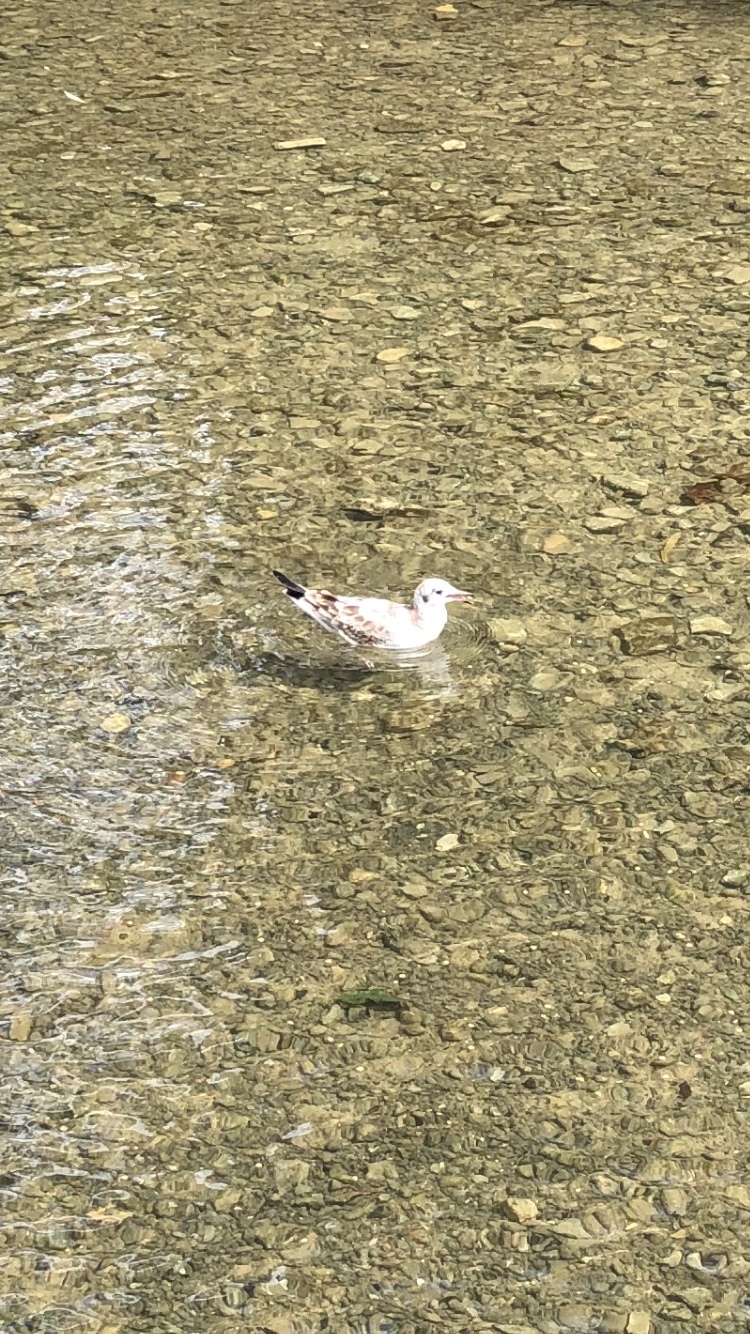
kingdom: Animalia
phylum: Chordata
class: Aves
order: Charadriiformes
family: Laridae
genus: Chroicocephalus
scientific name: Chroicocephalus ridibundus
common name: Black-headed gull
